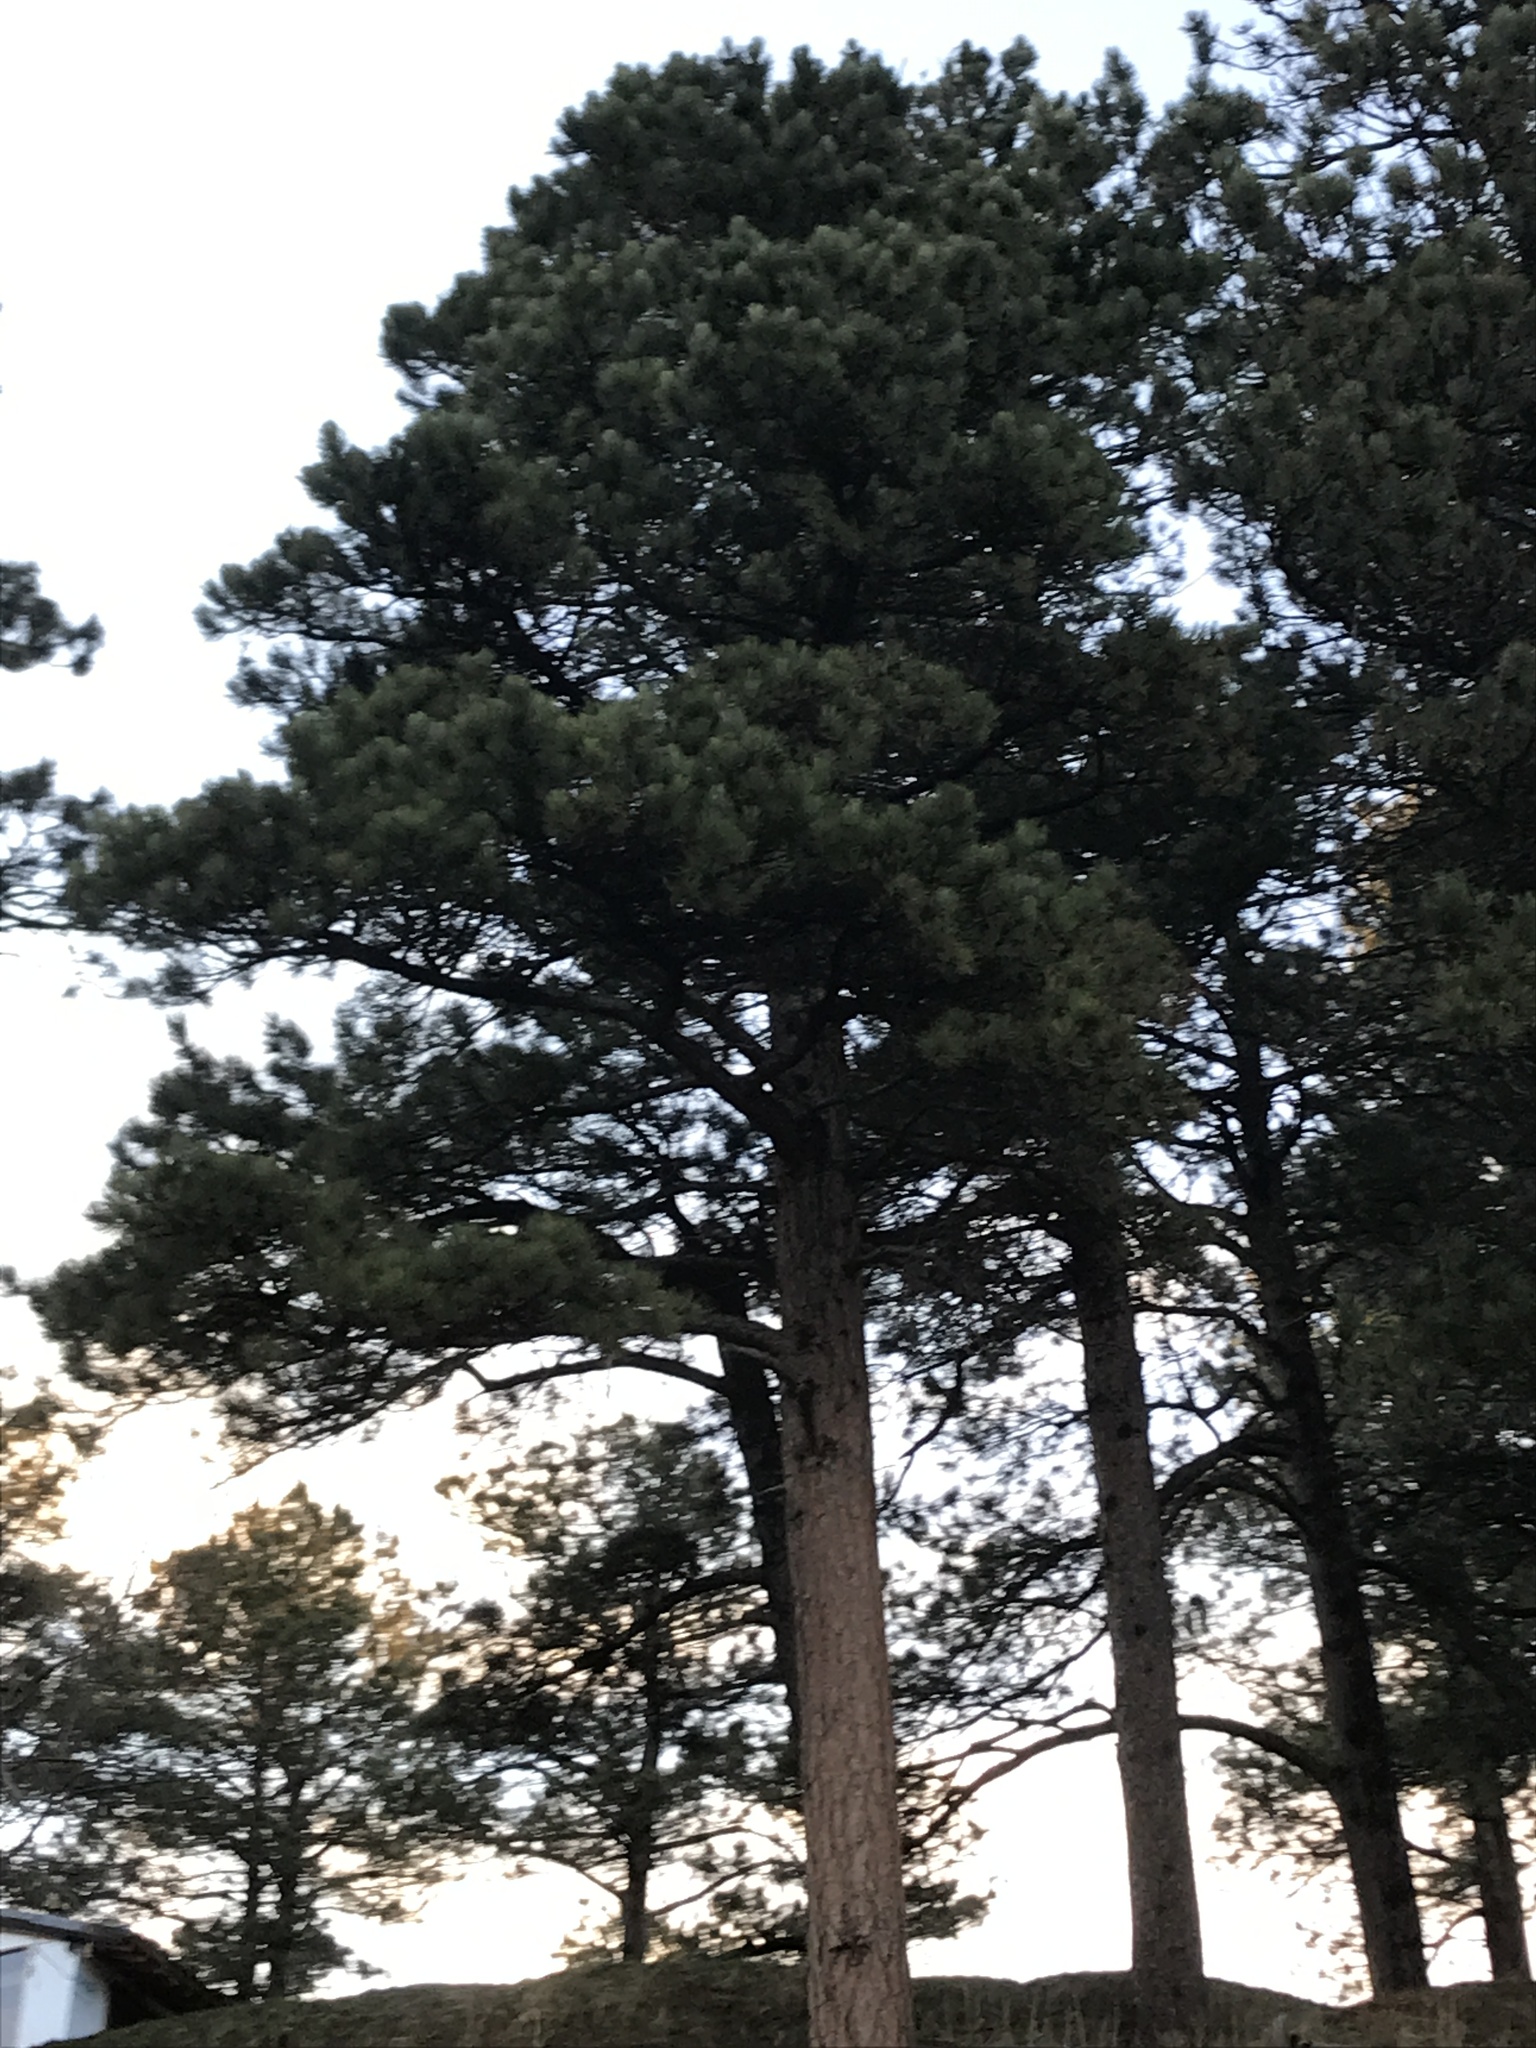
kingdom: Plantae
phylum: Tracheophyta
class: Pinopsida
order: Pinales
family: Pinaceae
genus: Pinus
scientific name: Pinus ponderosa
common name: Western yellow-pine
